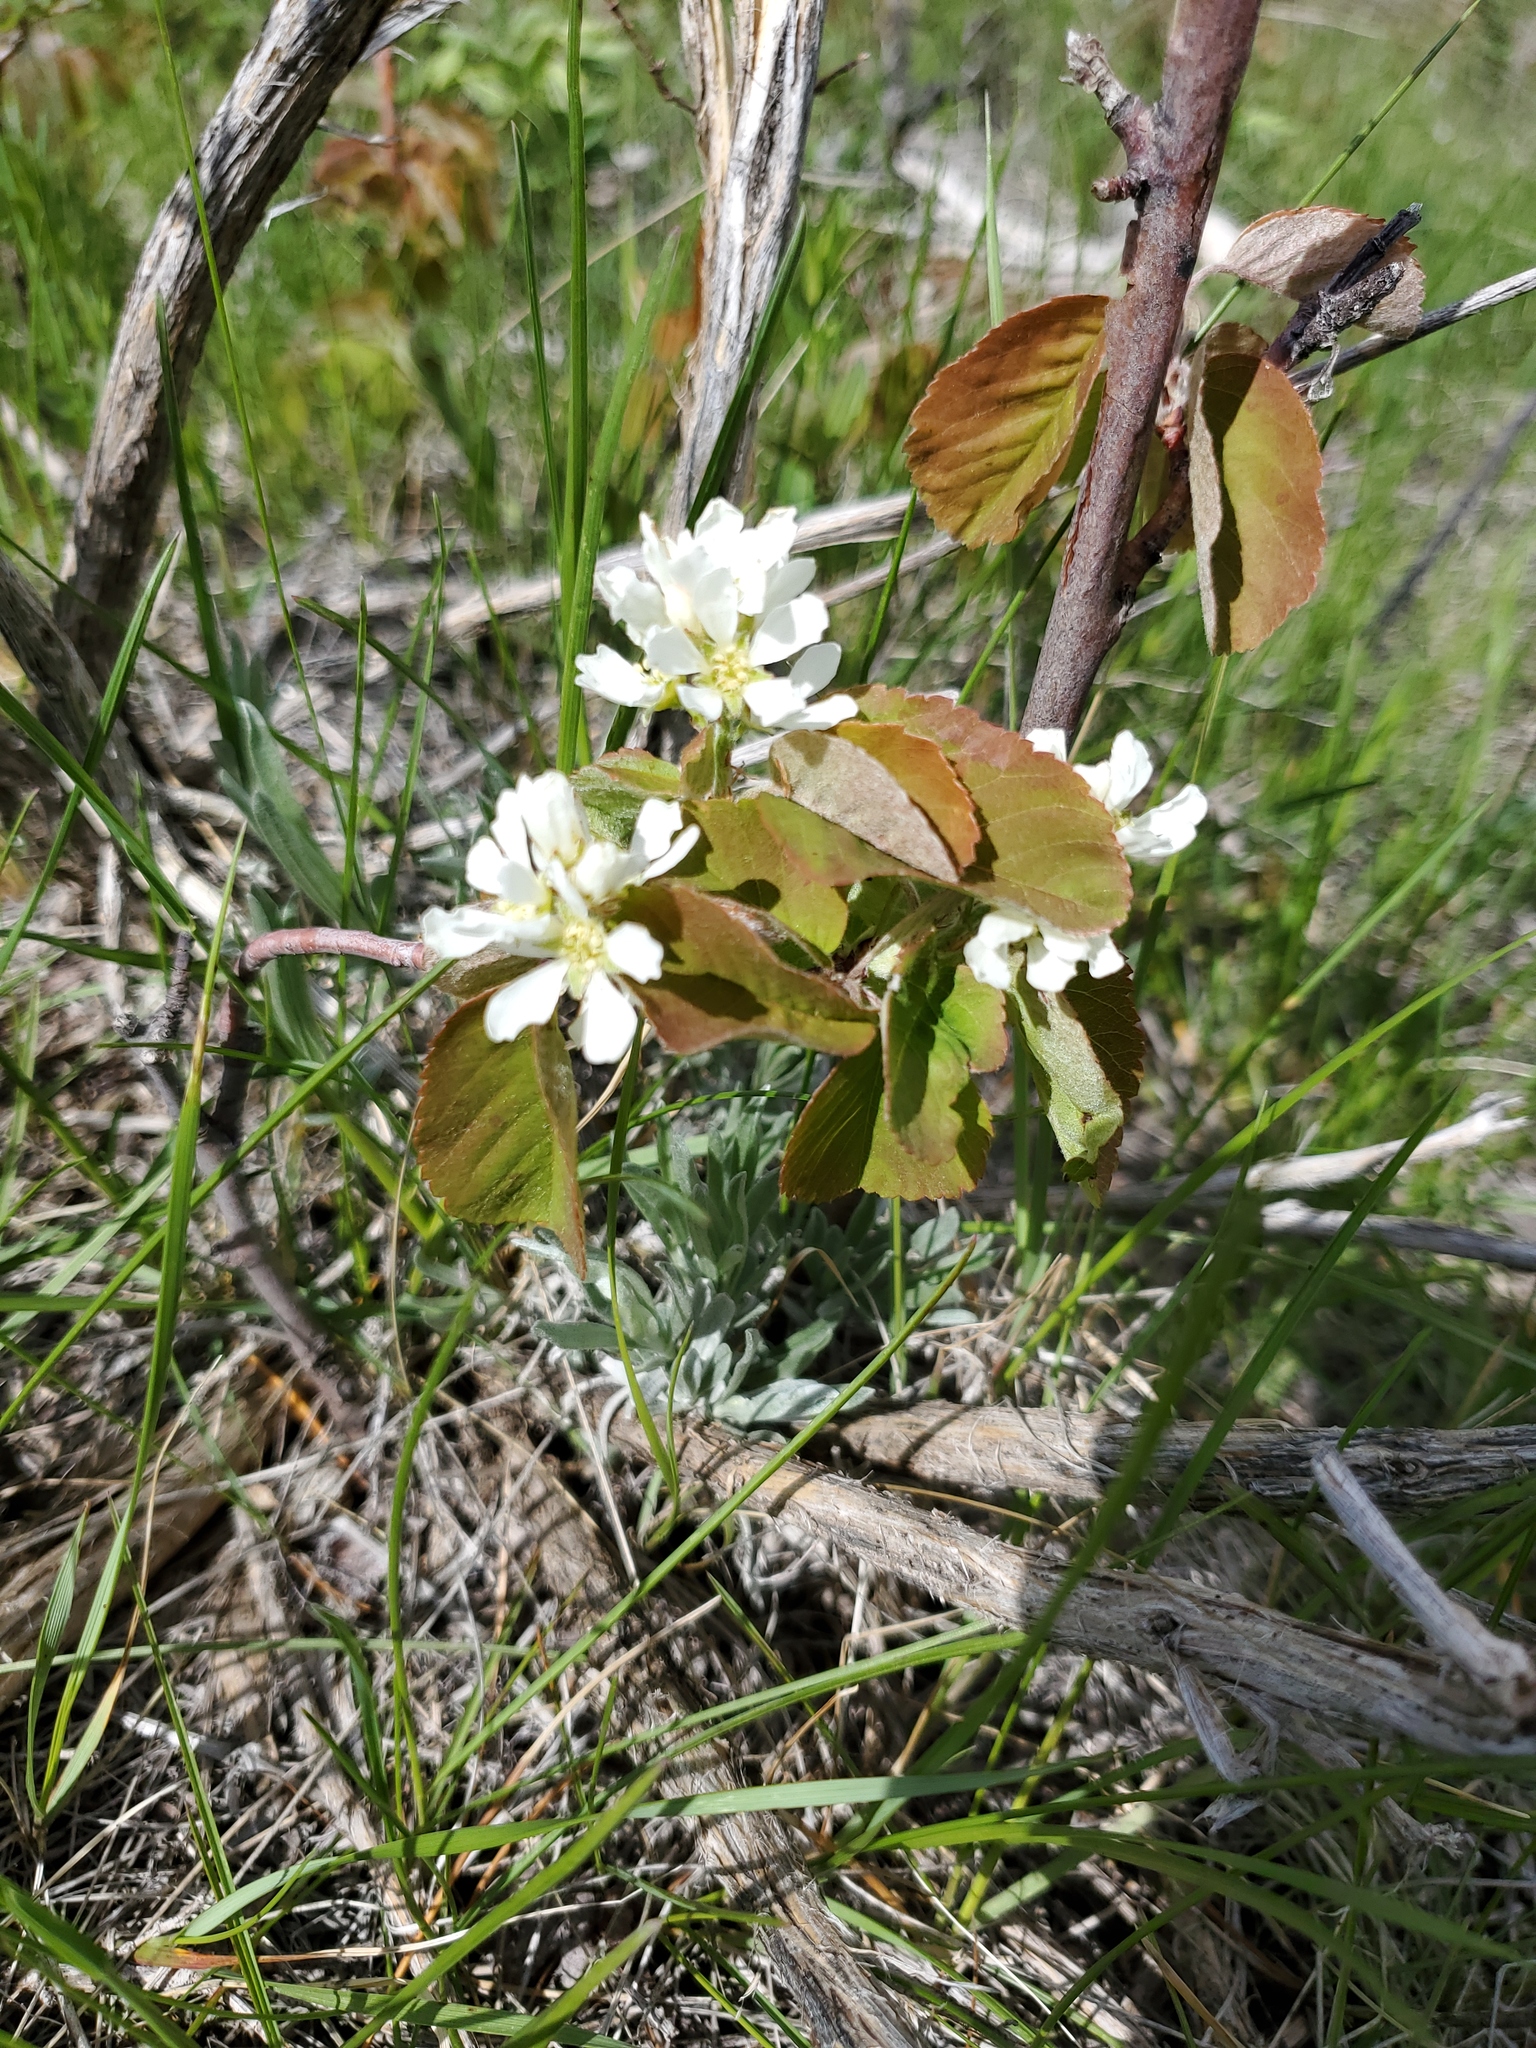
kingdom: Plantae
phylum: Tracheophyta
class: Magnoliopsida
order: Rosales
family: Rosaceae
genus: Amelanchier
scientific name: Amelanchier alnifolia
